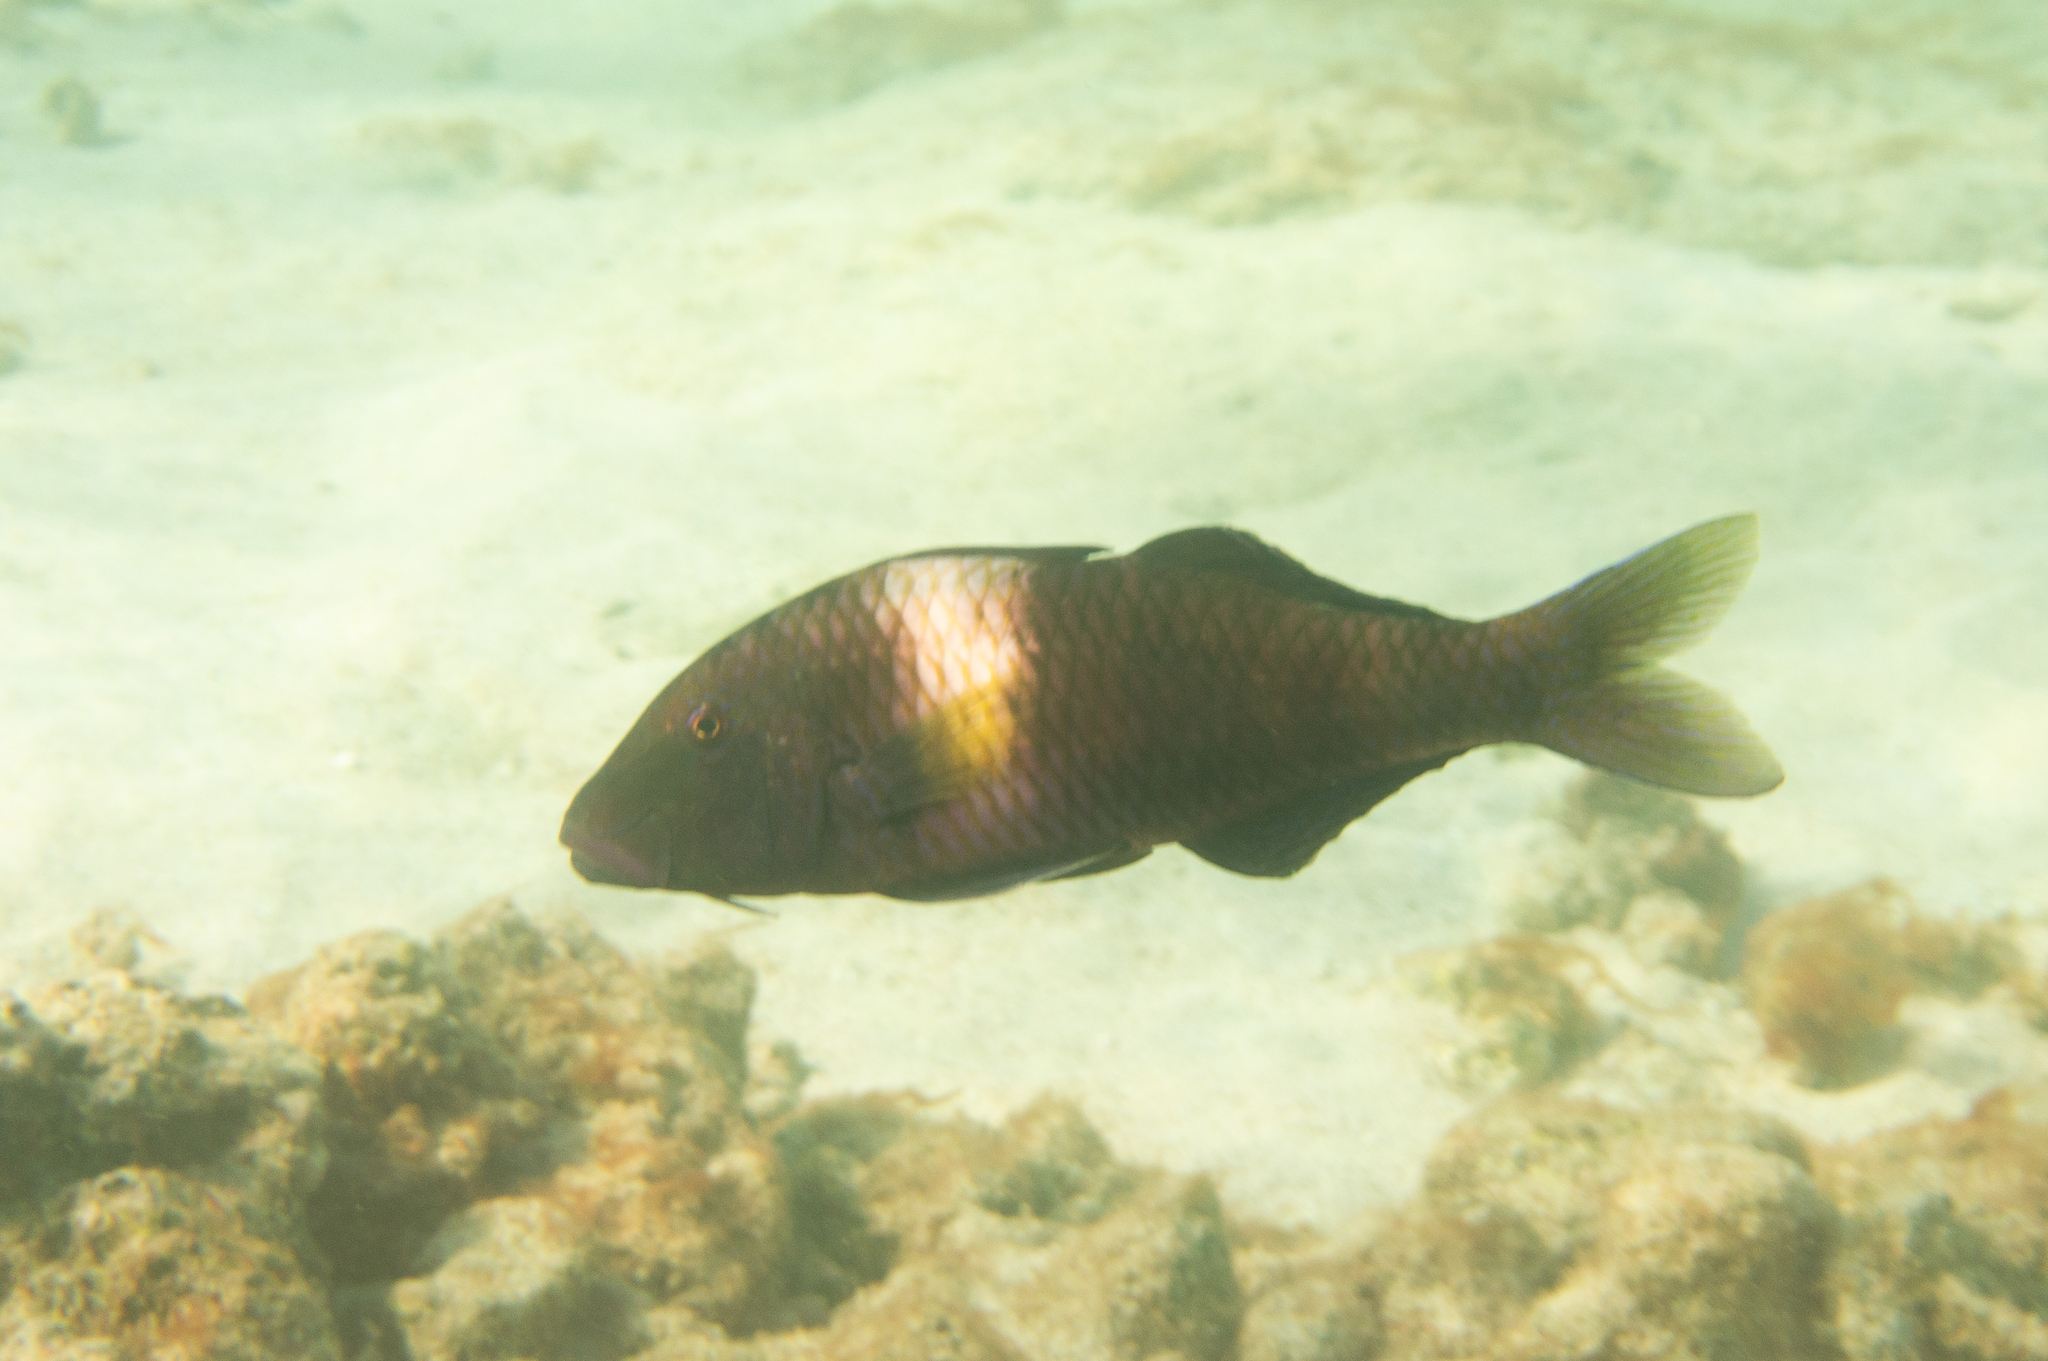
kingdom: Animalia
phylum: Chordata
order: Perciformes
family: Mullidae
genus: Parupeneus
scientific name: Parupeneus multifasciatus
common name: Manybar goatfish
